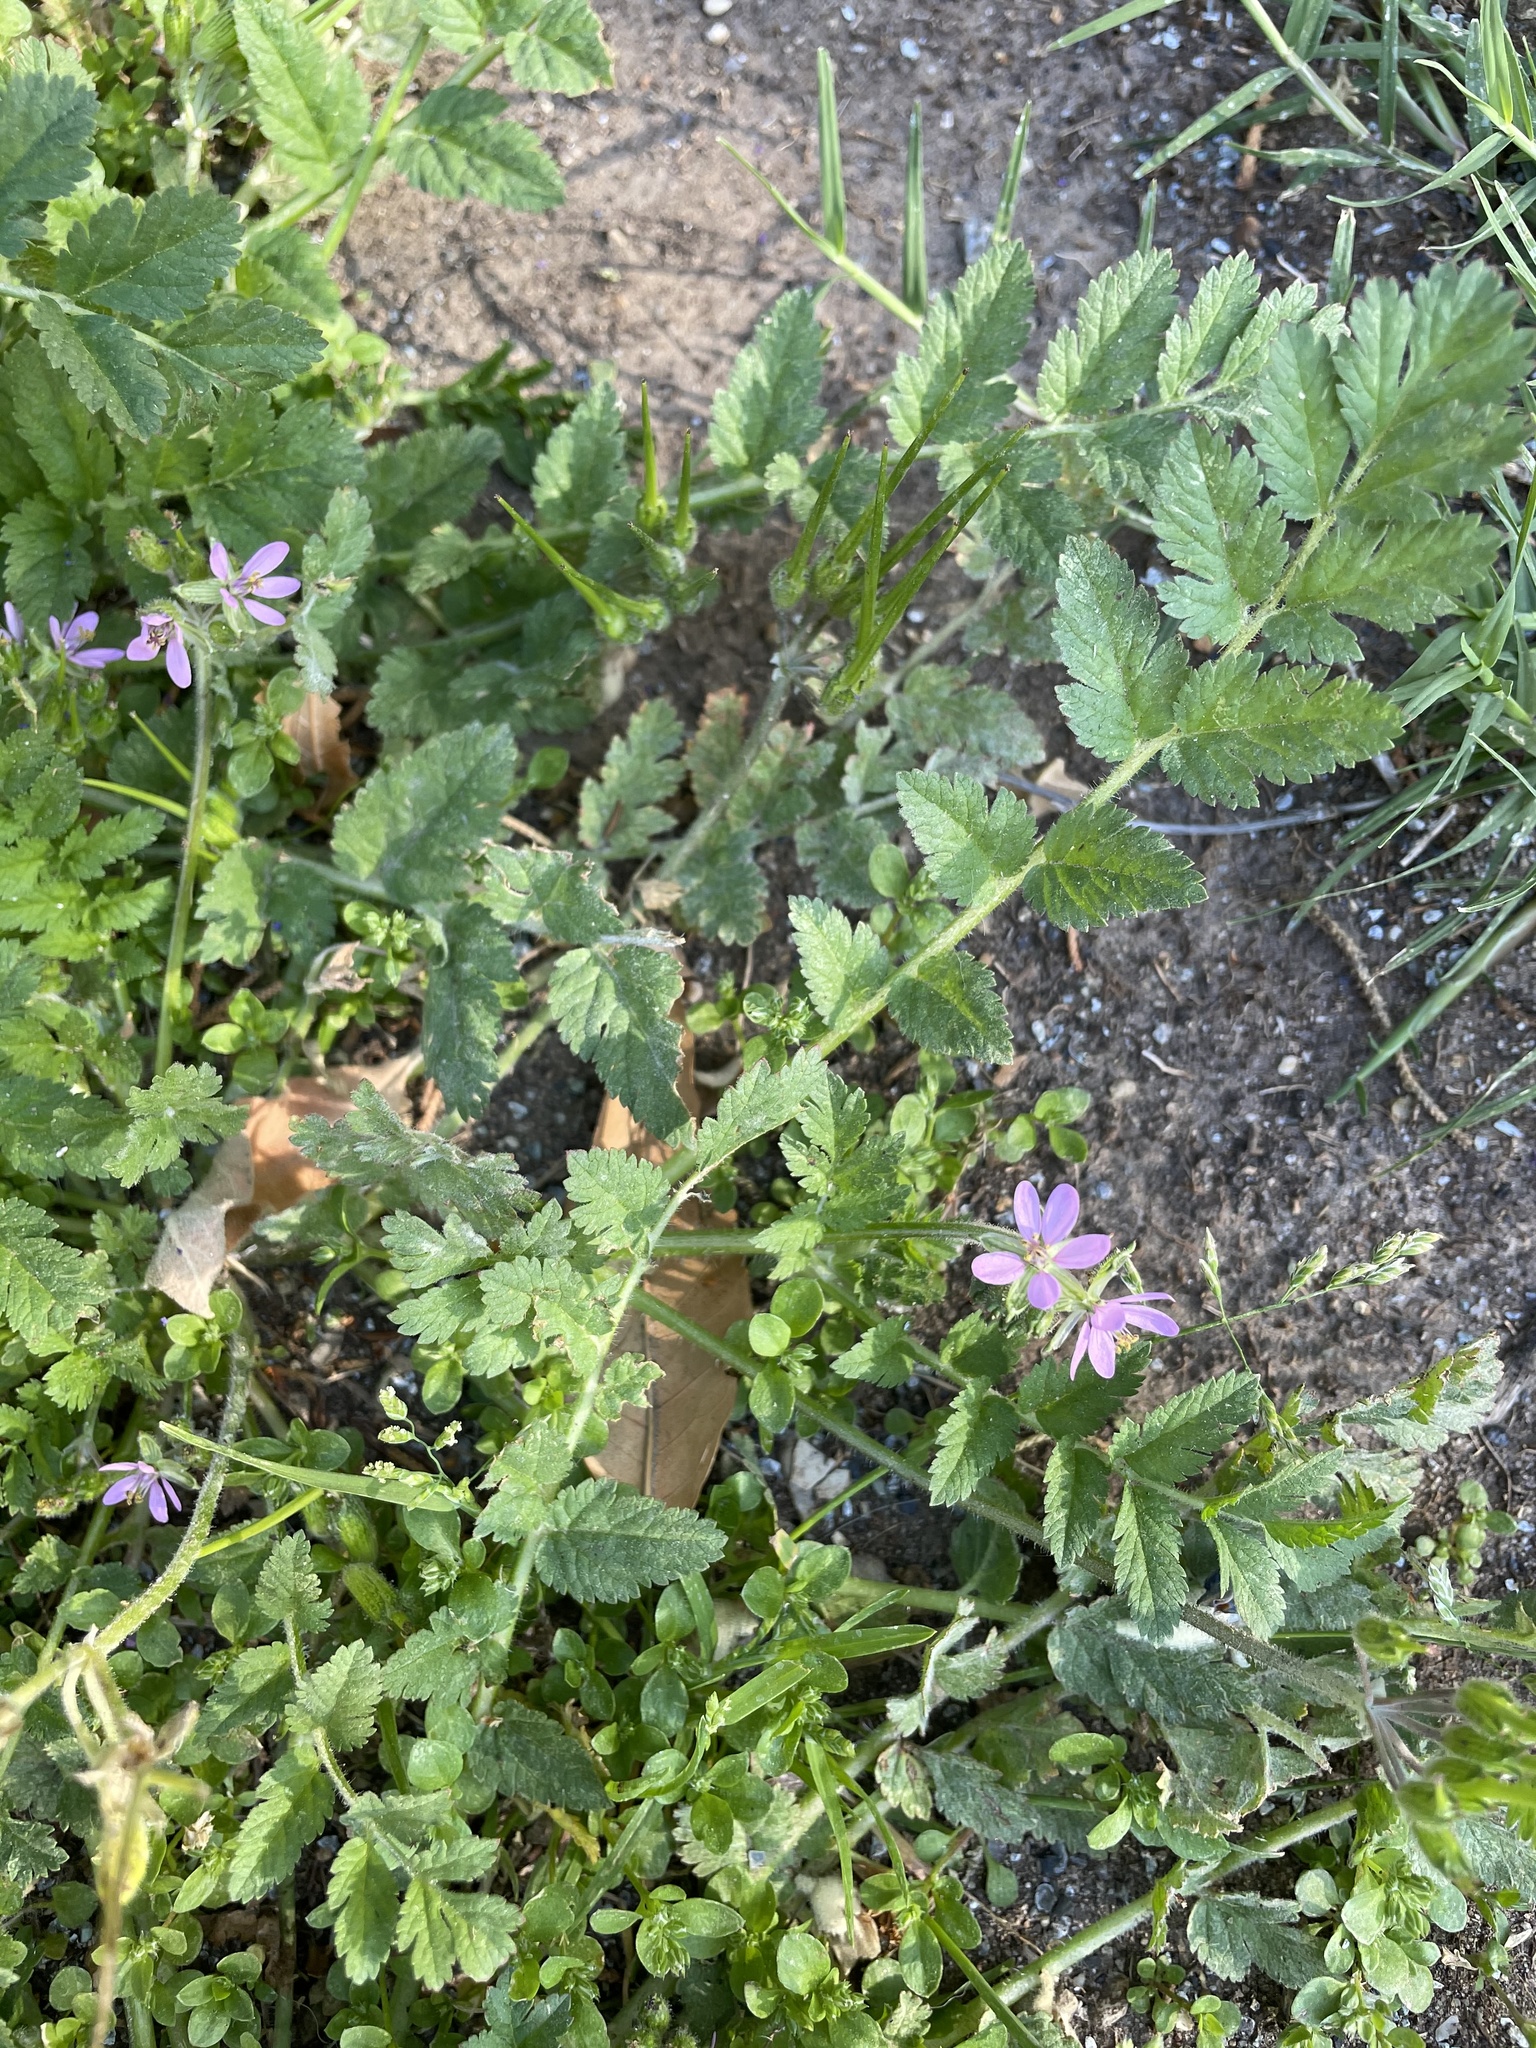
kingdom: Plantae
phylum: Tracheophyta
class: Magnoliopsida
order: Geraniales
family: Geraniaceae
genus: Erodium
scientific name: Erodium moschatum
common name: Musk stork's-bill
